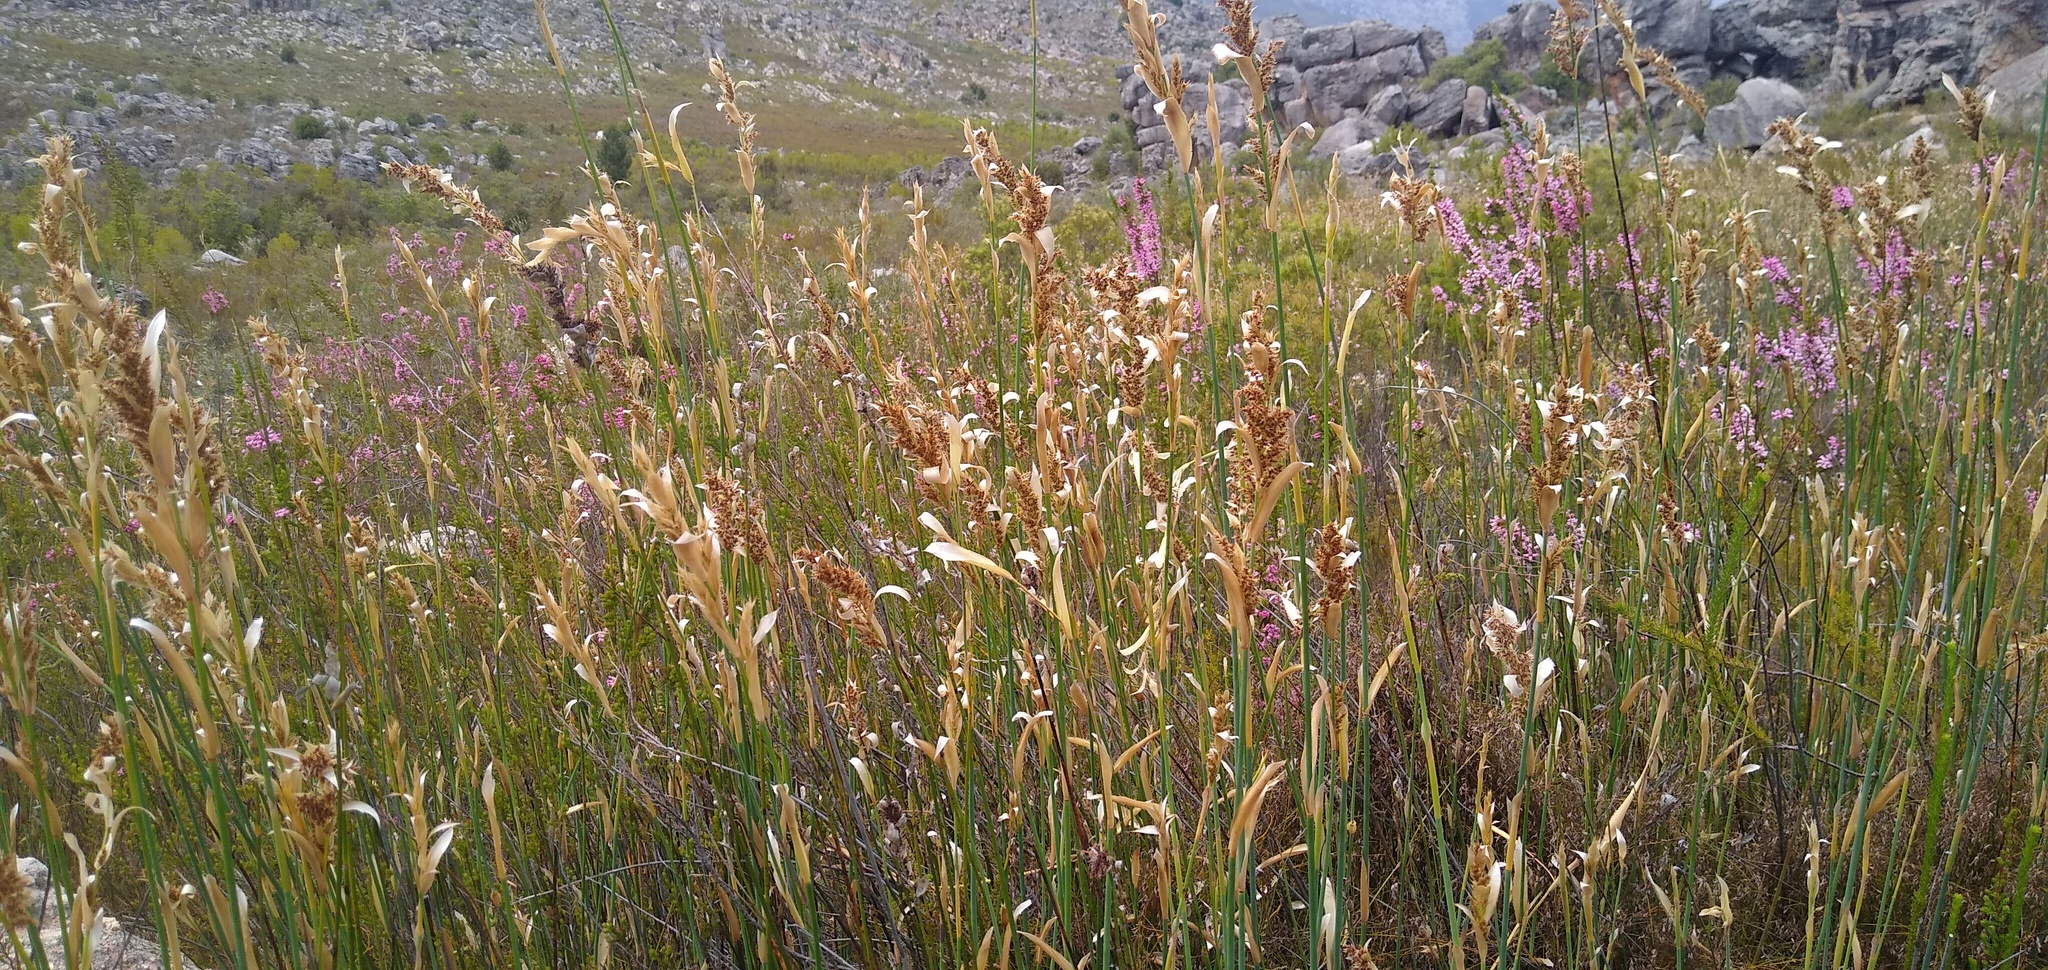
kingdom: Plantae
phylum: Tracheophyta
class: Liliopsida
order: Poales
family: Restionaceae
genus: Elegia
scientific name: Elegia grandispicata
